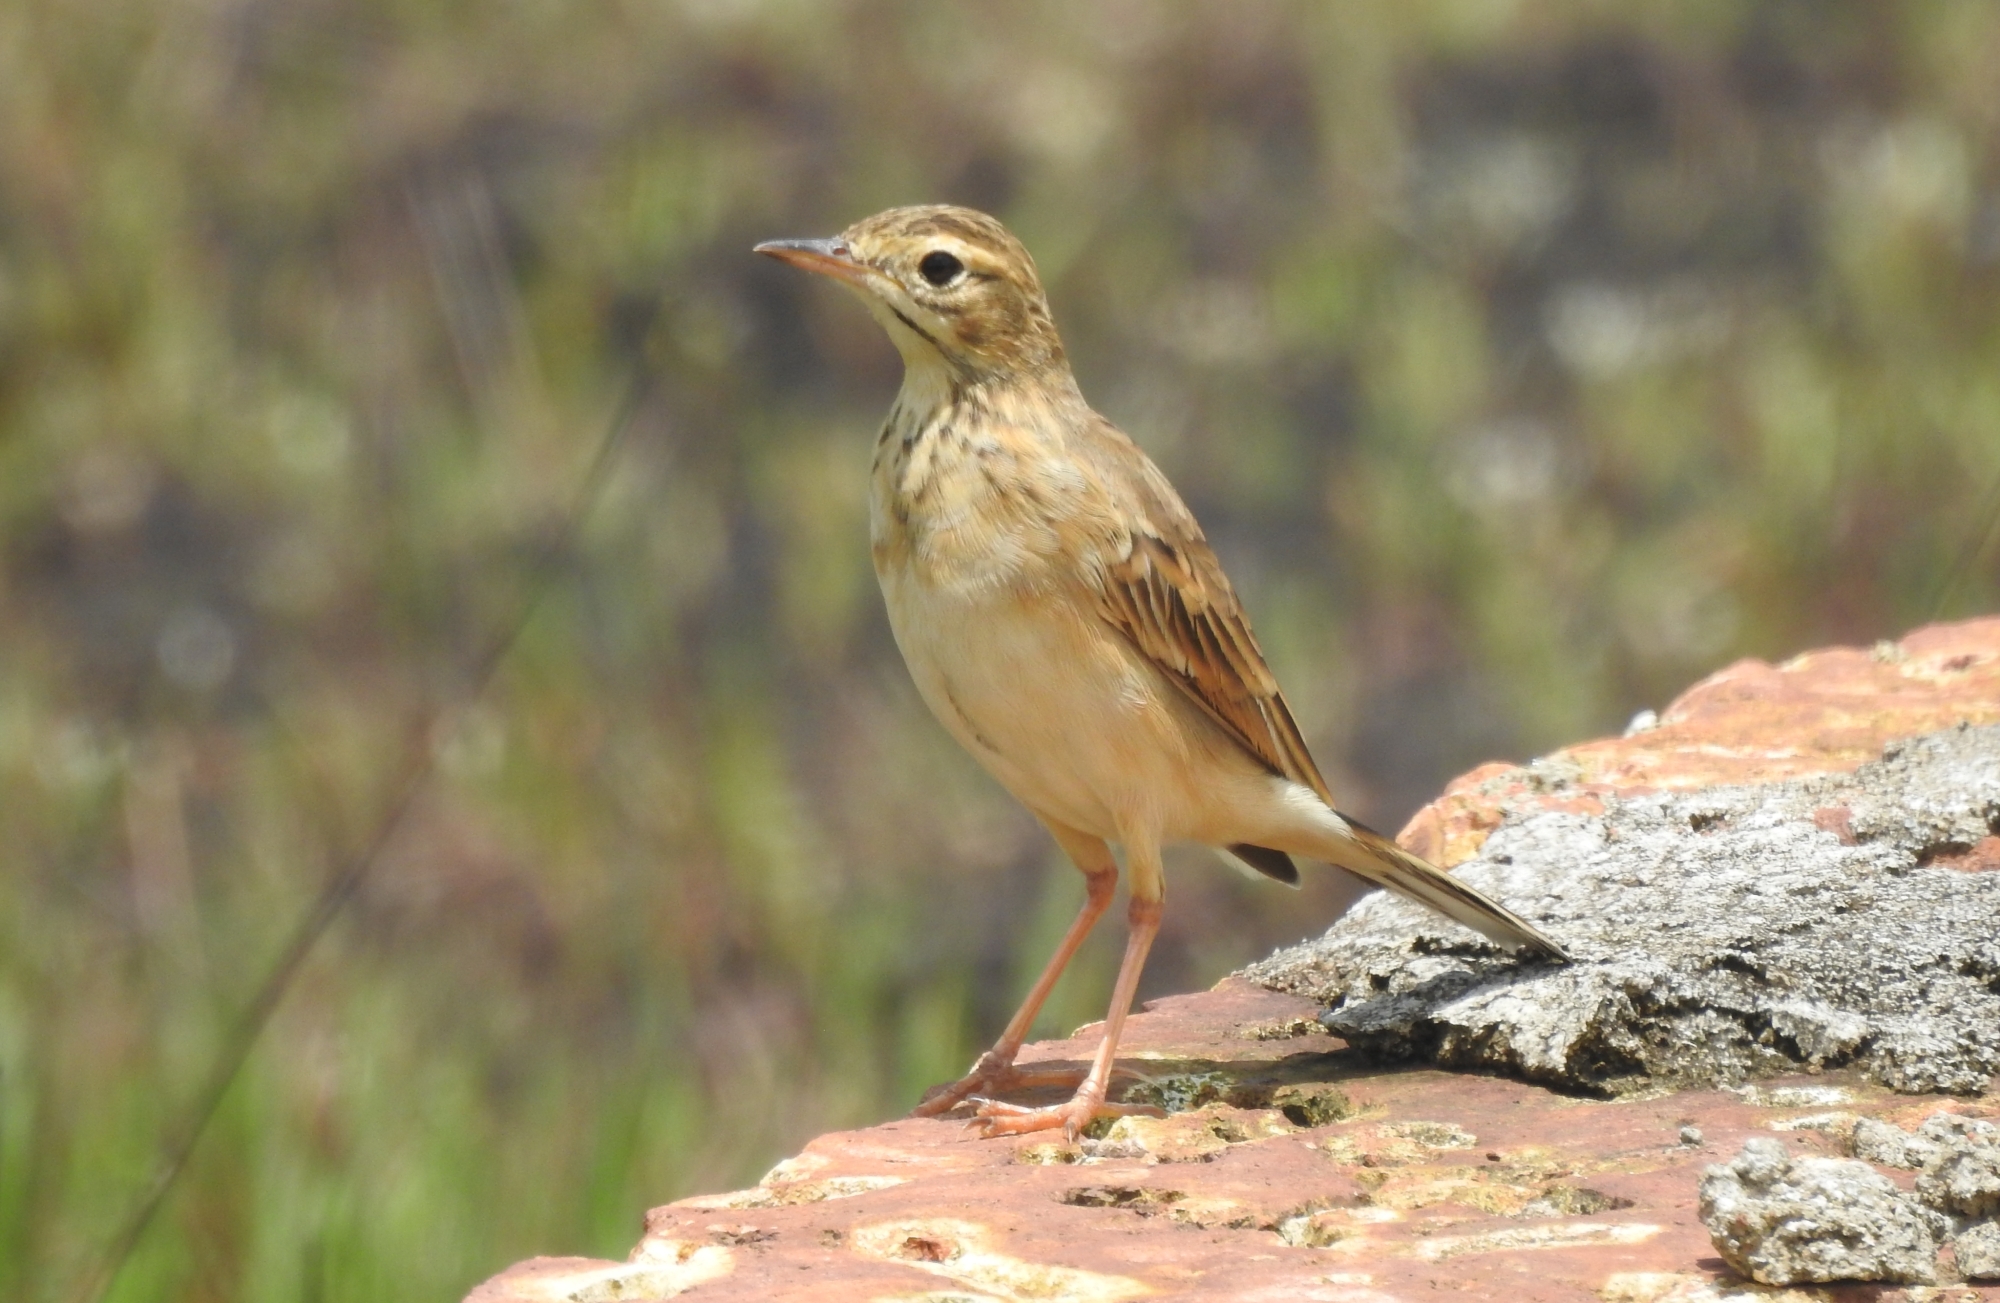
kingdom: Animalia
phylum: Chordata
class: Aves
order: Passeriformes
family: Motacillidae
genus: Anthus
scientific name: Anthus rufulus
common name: Paddyfield pipit
